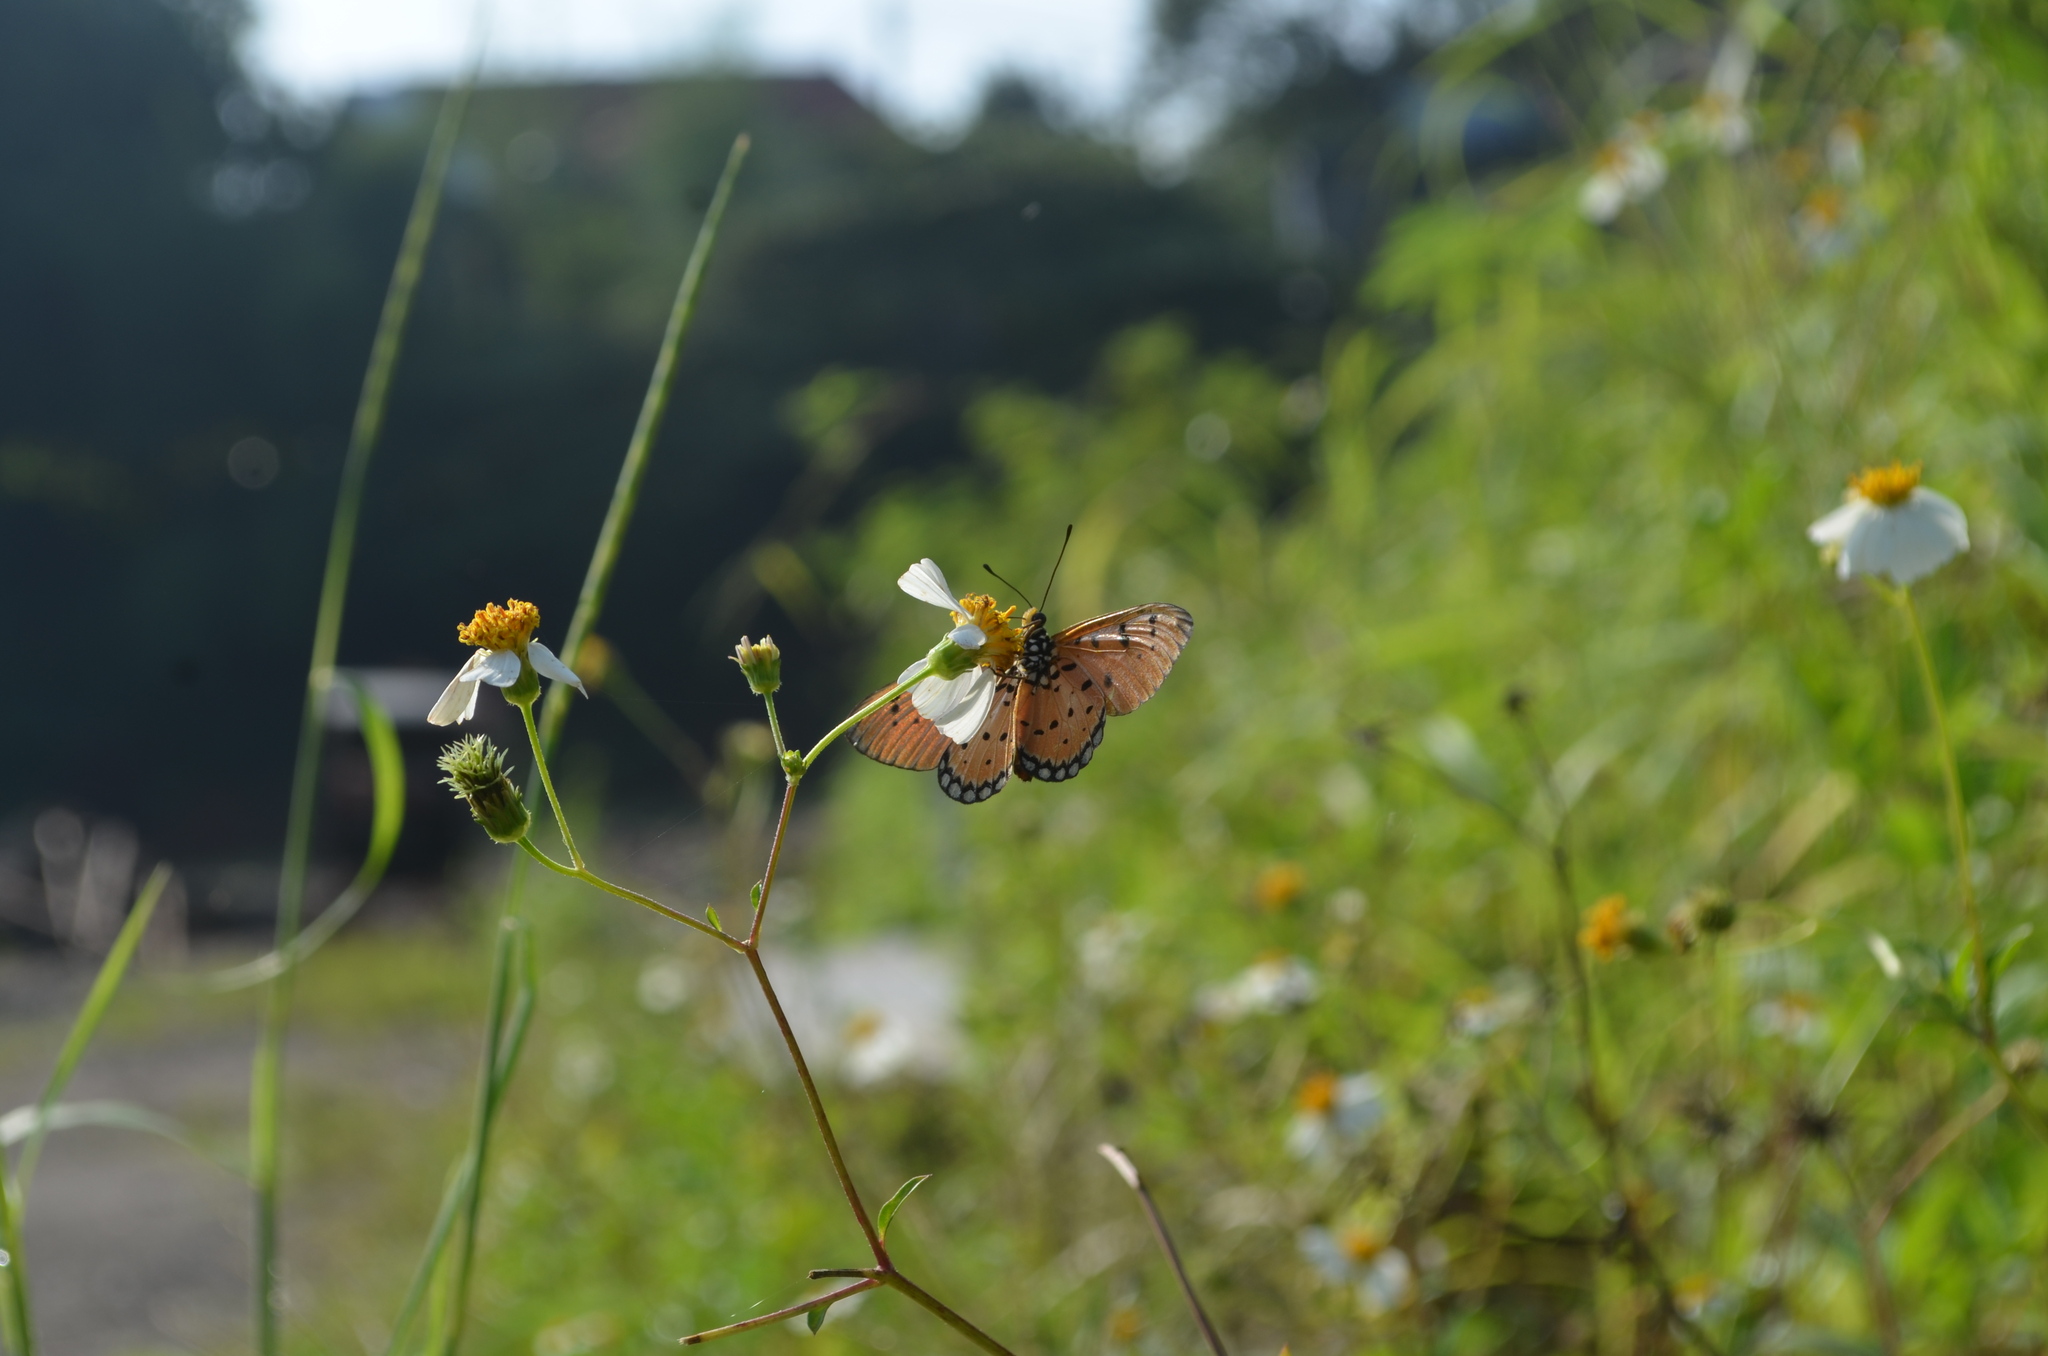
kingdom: Animalia
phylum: Arthropoda
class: Insecta
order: Lepidoptera
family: Nymphalidae
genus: Acraea
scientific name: Acraea terpsicore
